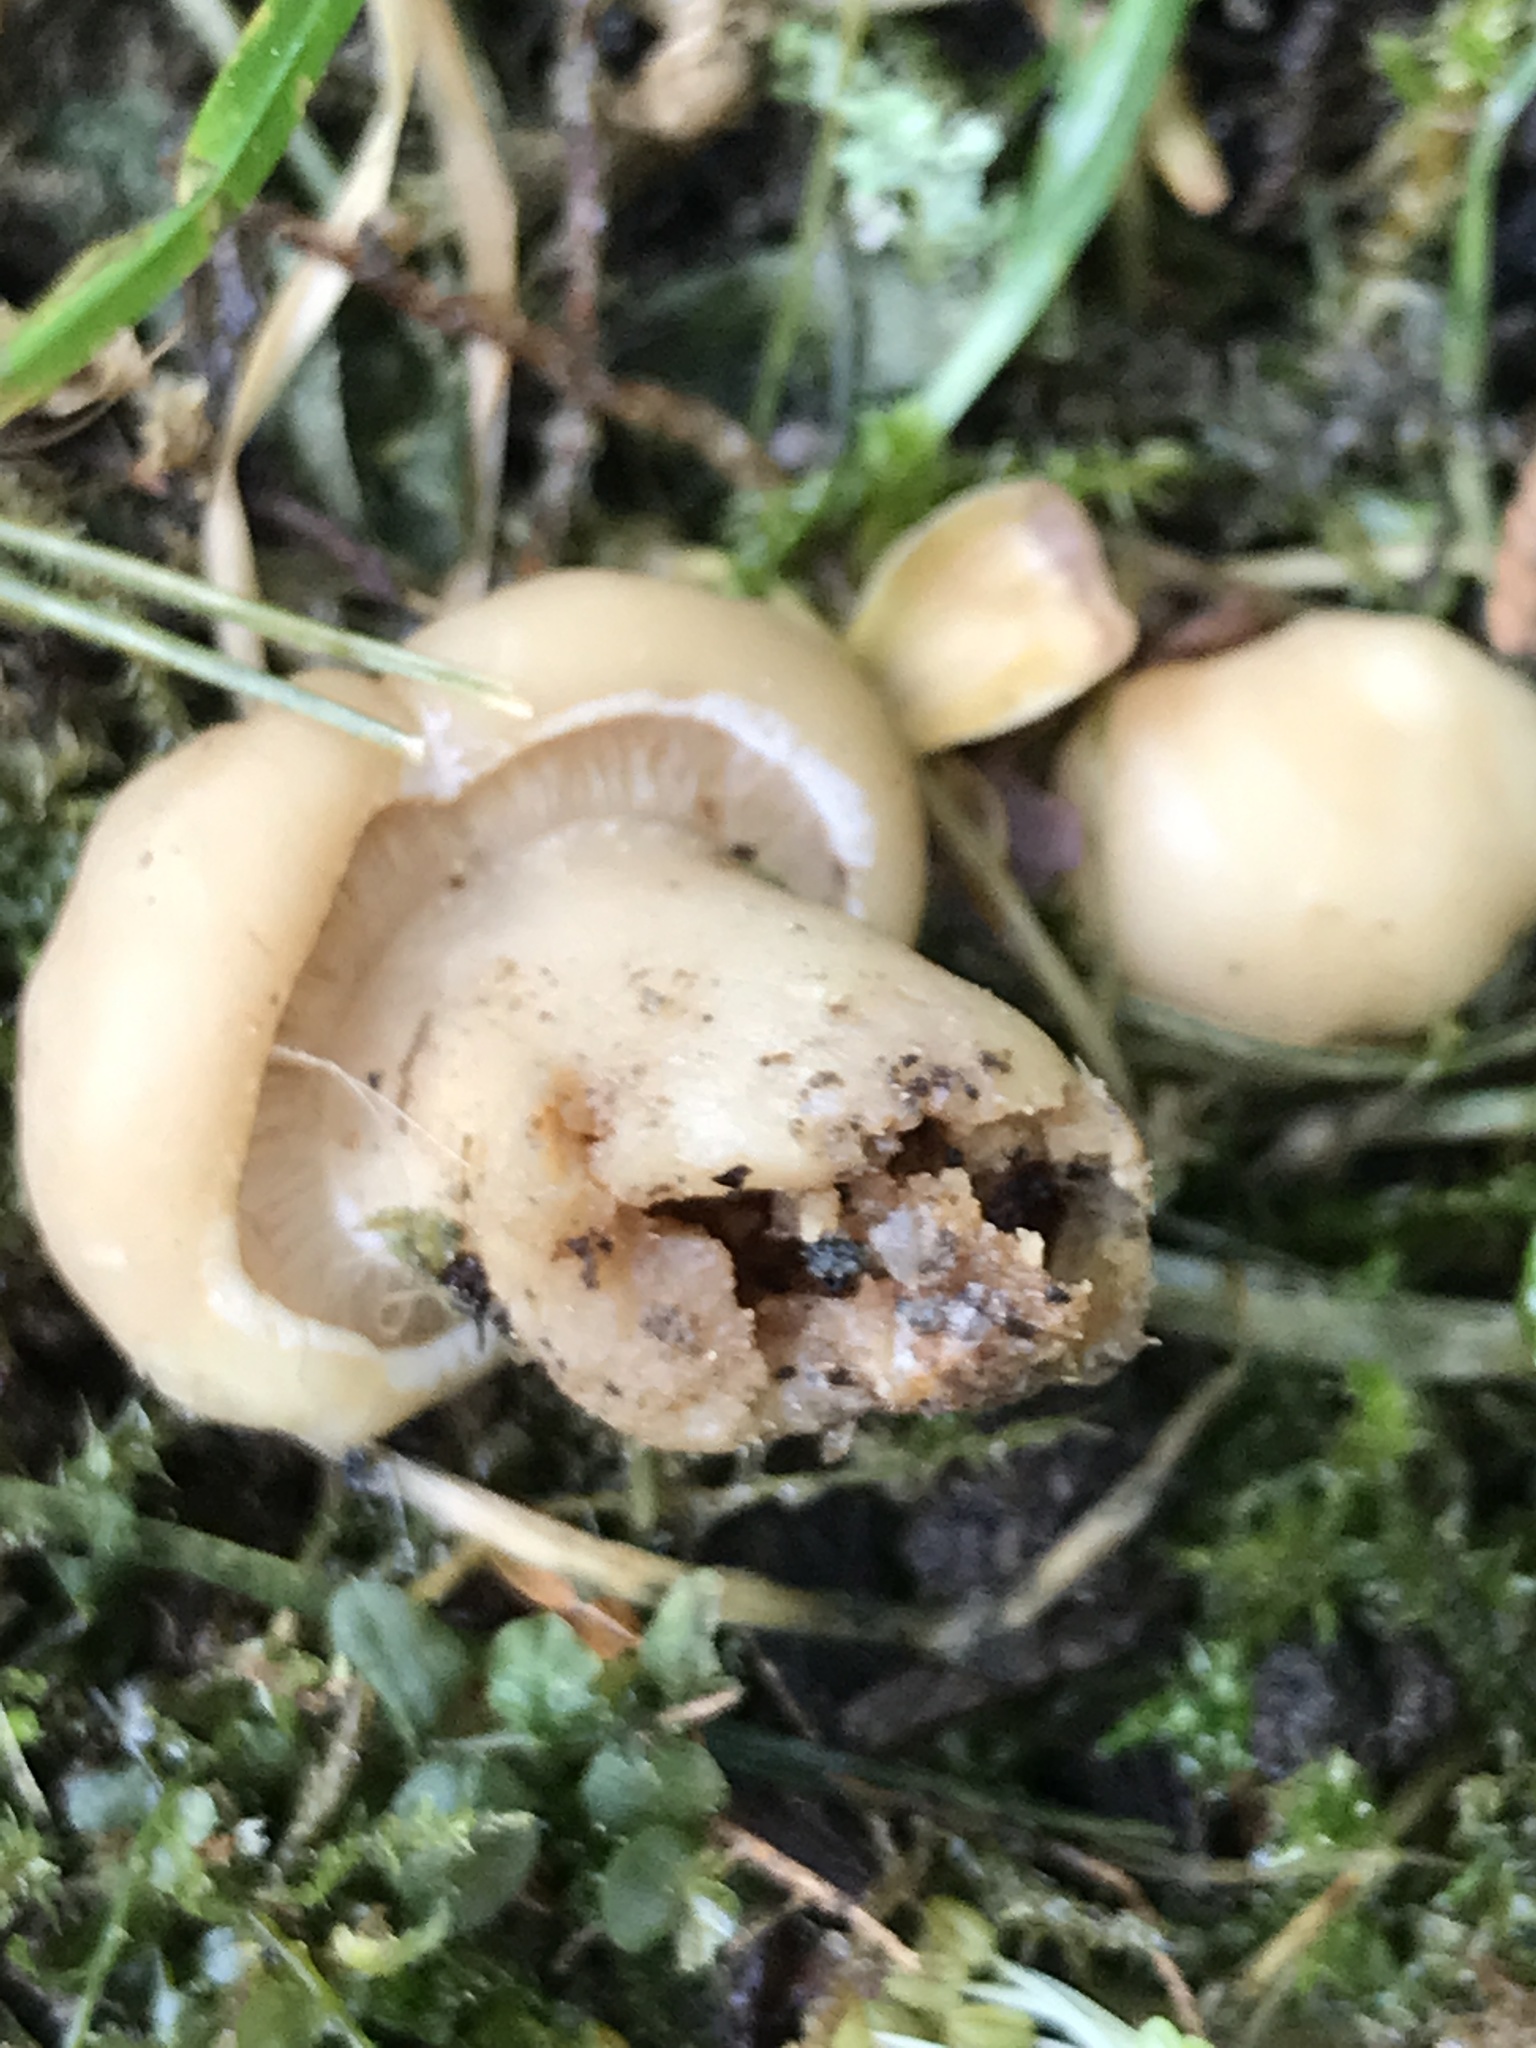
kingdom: Fungi
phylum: Basidiomycota
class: Agaricomycetes
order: Agaricales
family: Lyophyllaceae
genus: Calocybe
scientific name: Calocybe gambosa
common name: St. george's mushroom
